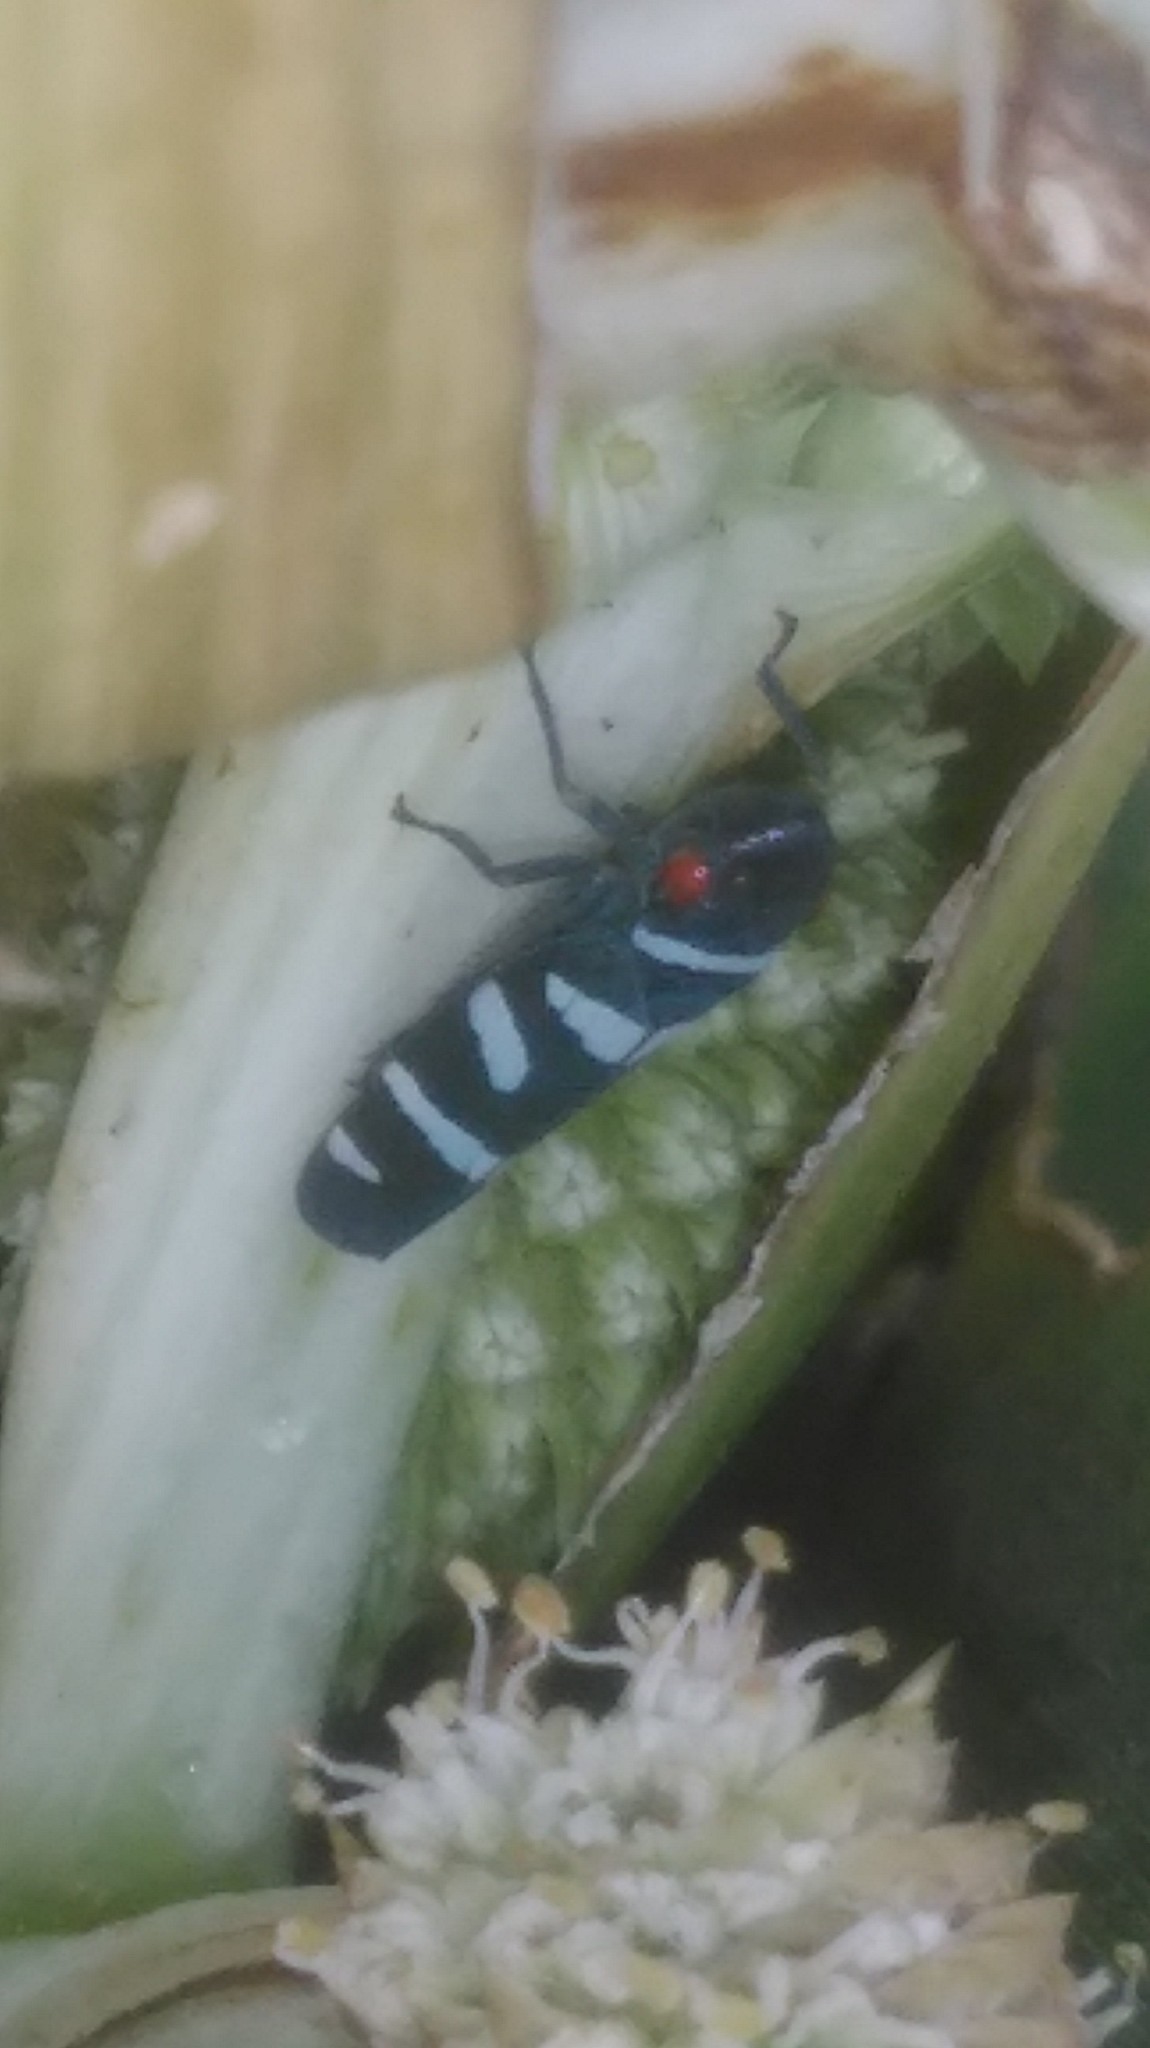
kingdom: Animalia
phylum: Arthropoda
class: Insecta
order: Hemiptera
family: Cicadellidae
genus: Balacha
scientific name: Balacha melanocephala
